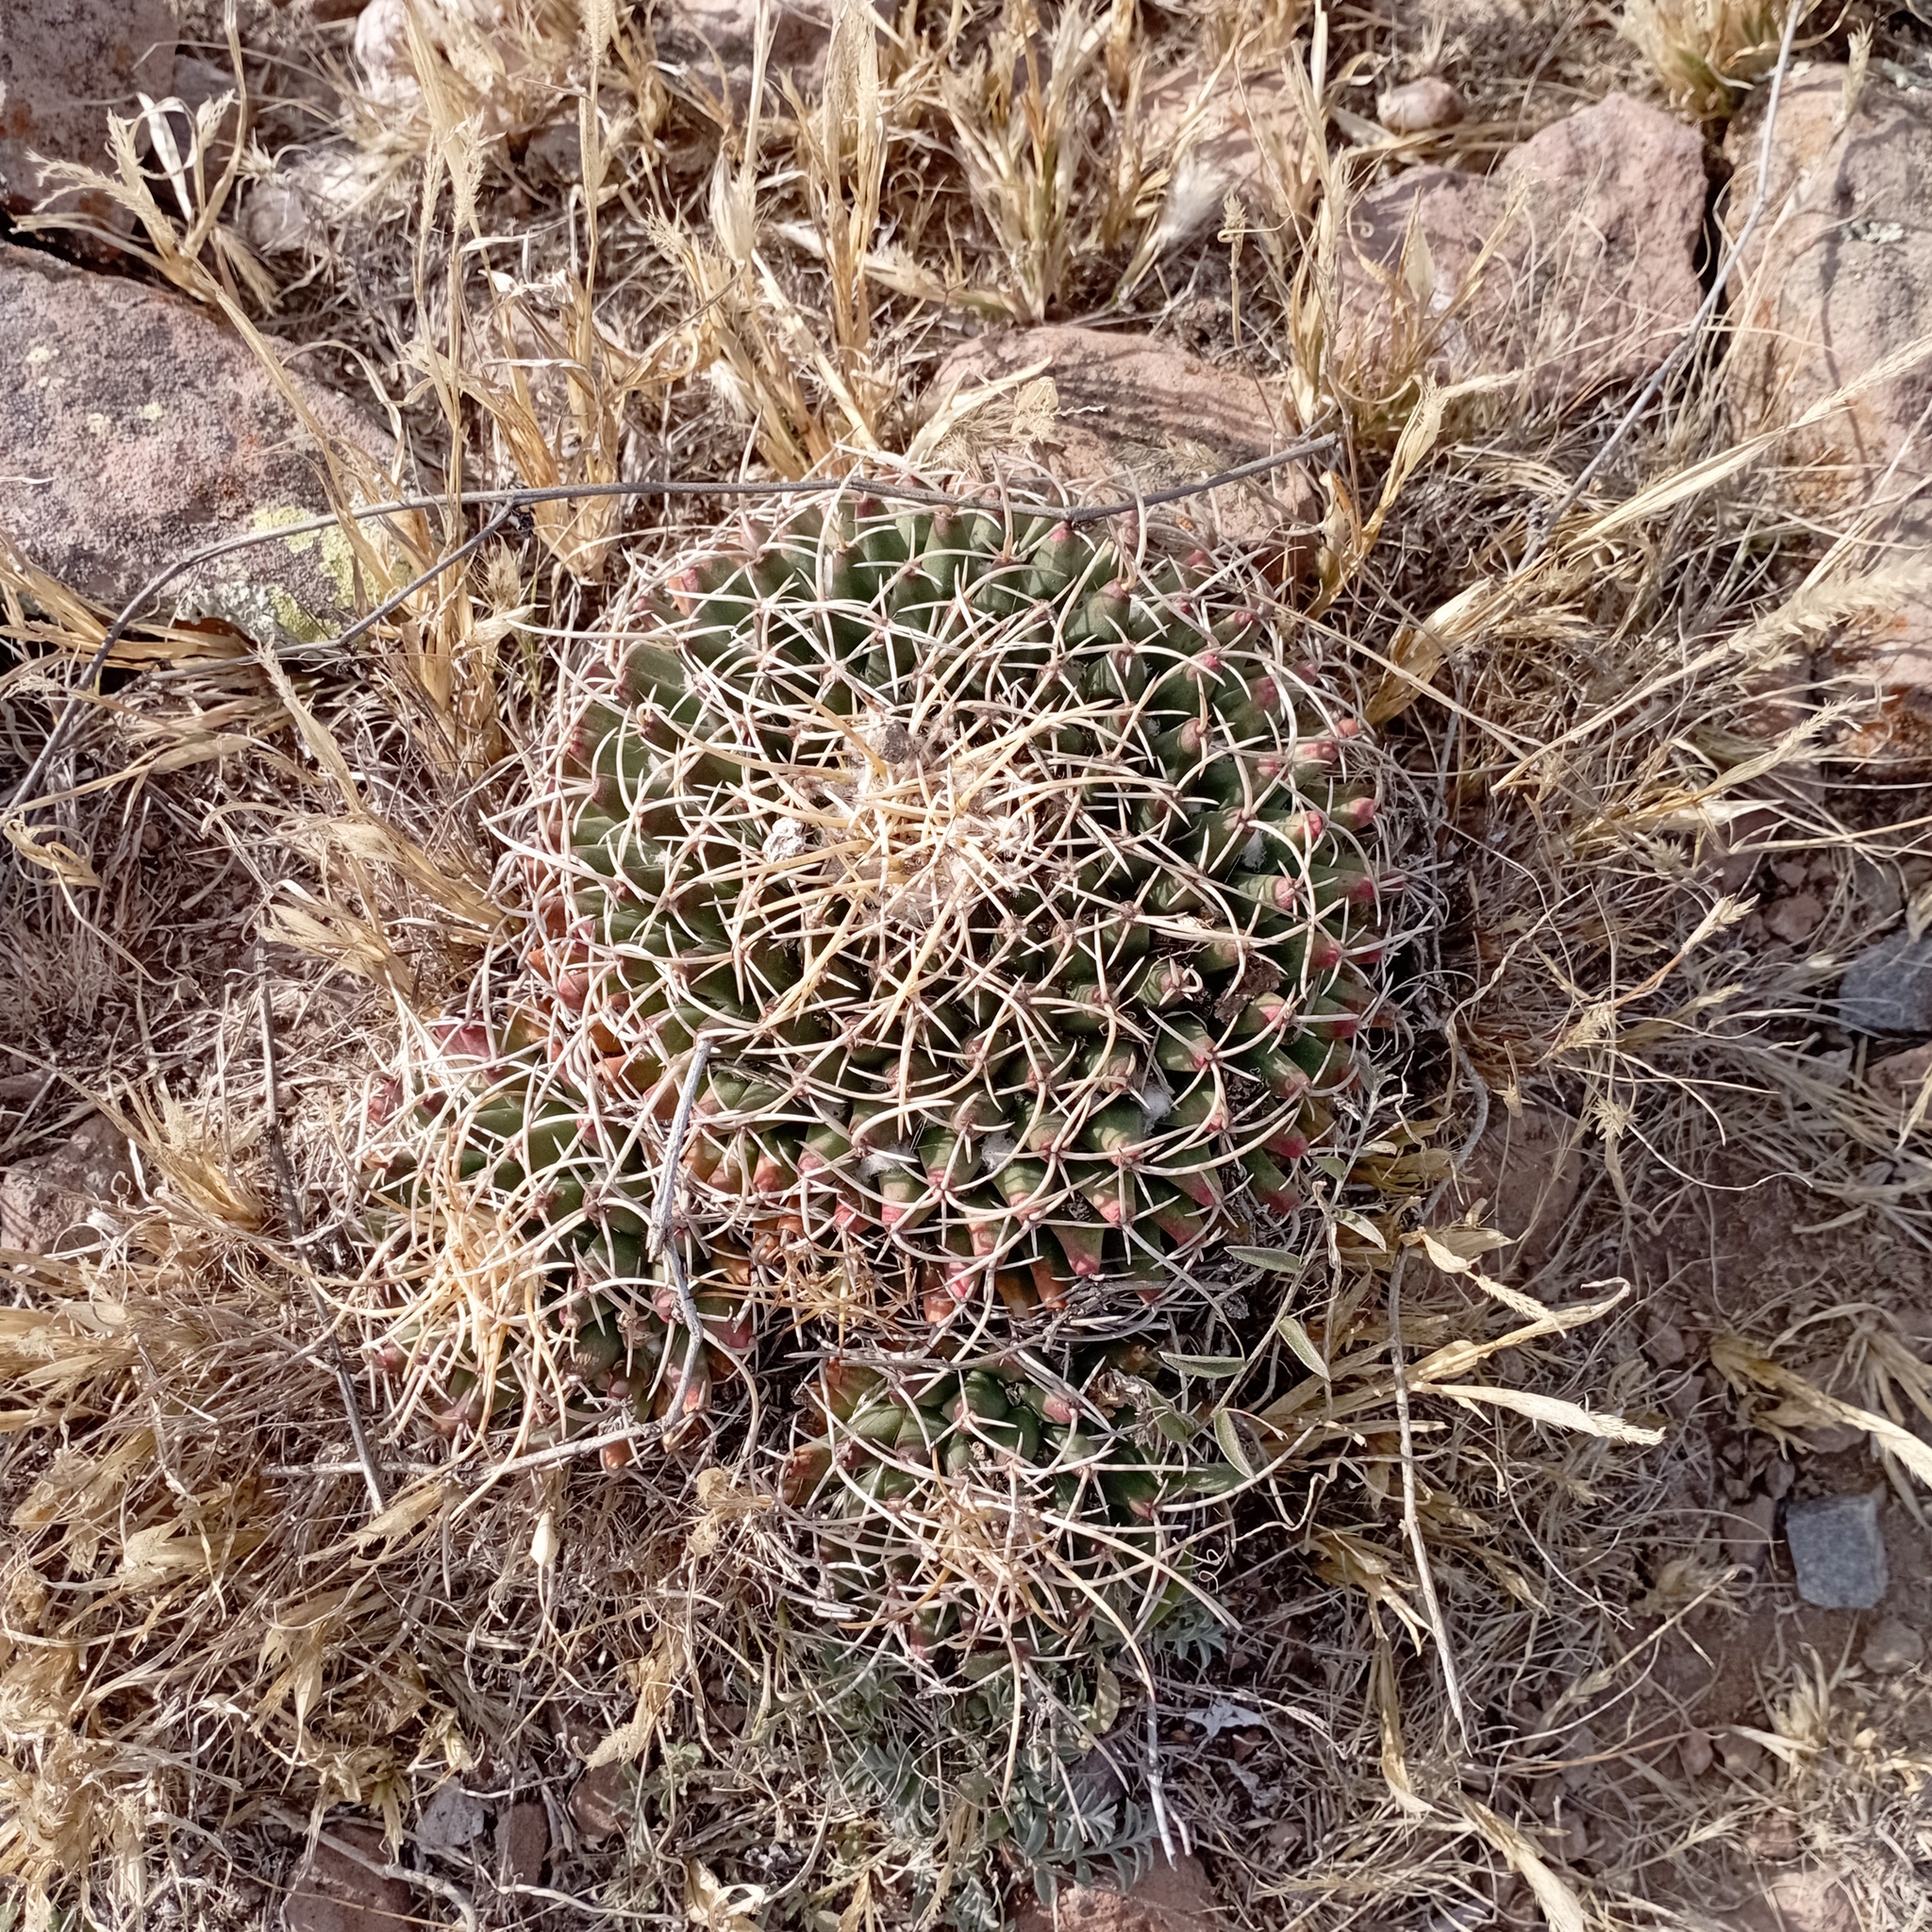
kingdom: Plantae
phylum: Tracheophyta
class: Magnoliopsida
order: Caryophyllales
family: Cactaceae
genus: Mammillaria
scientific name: Mammillaria magnimamma
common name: Mexican pincushion
